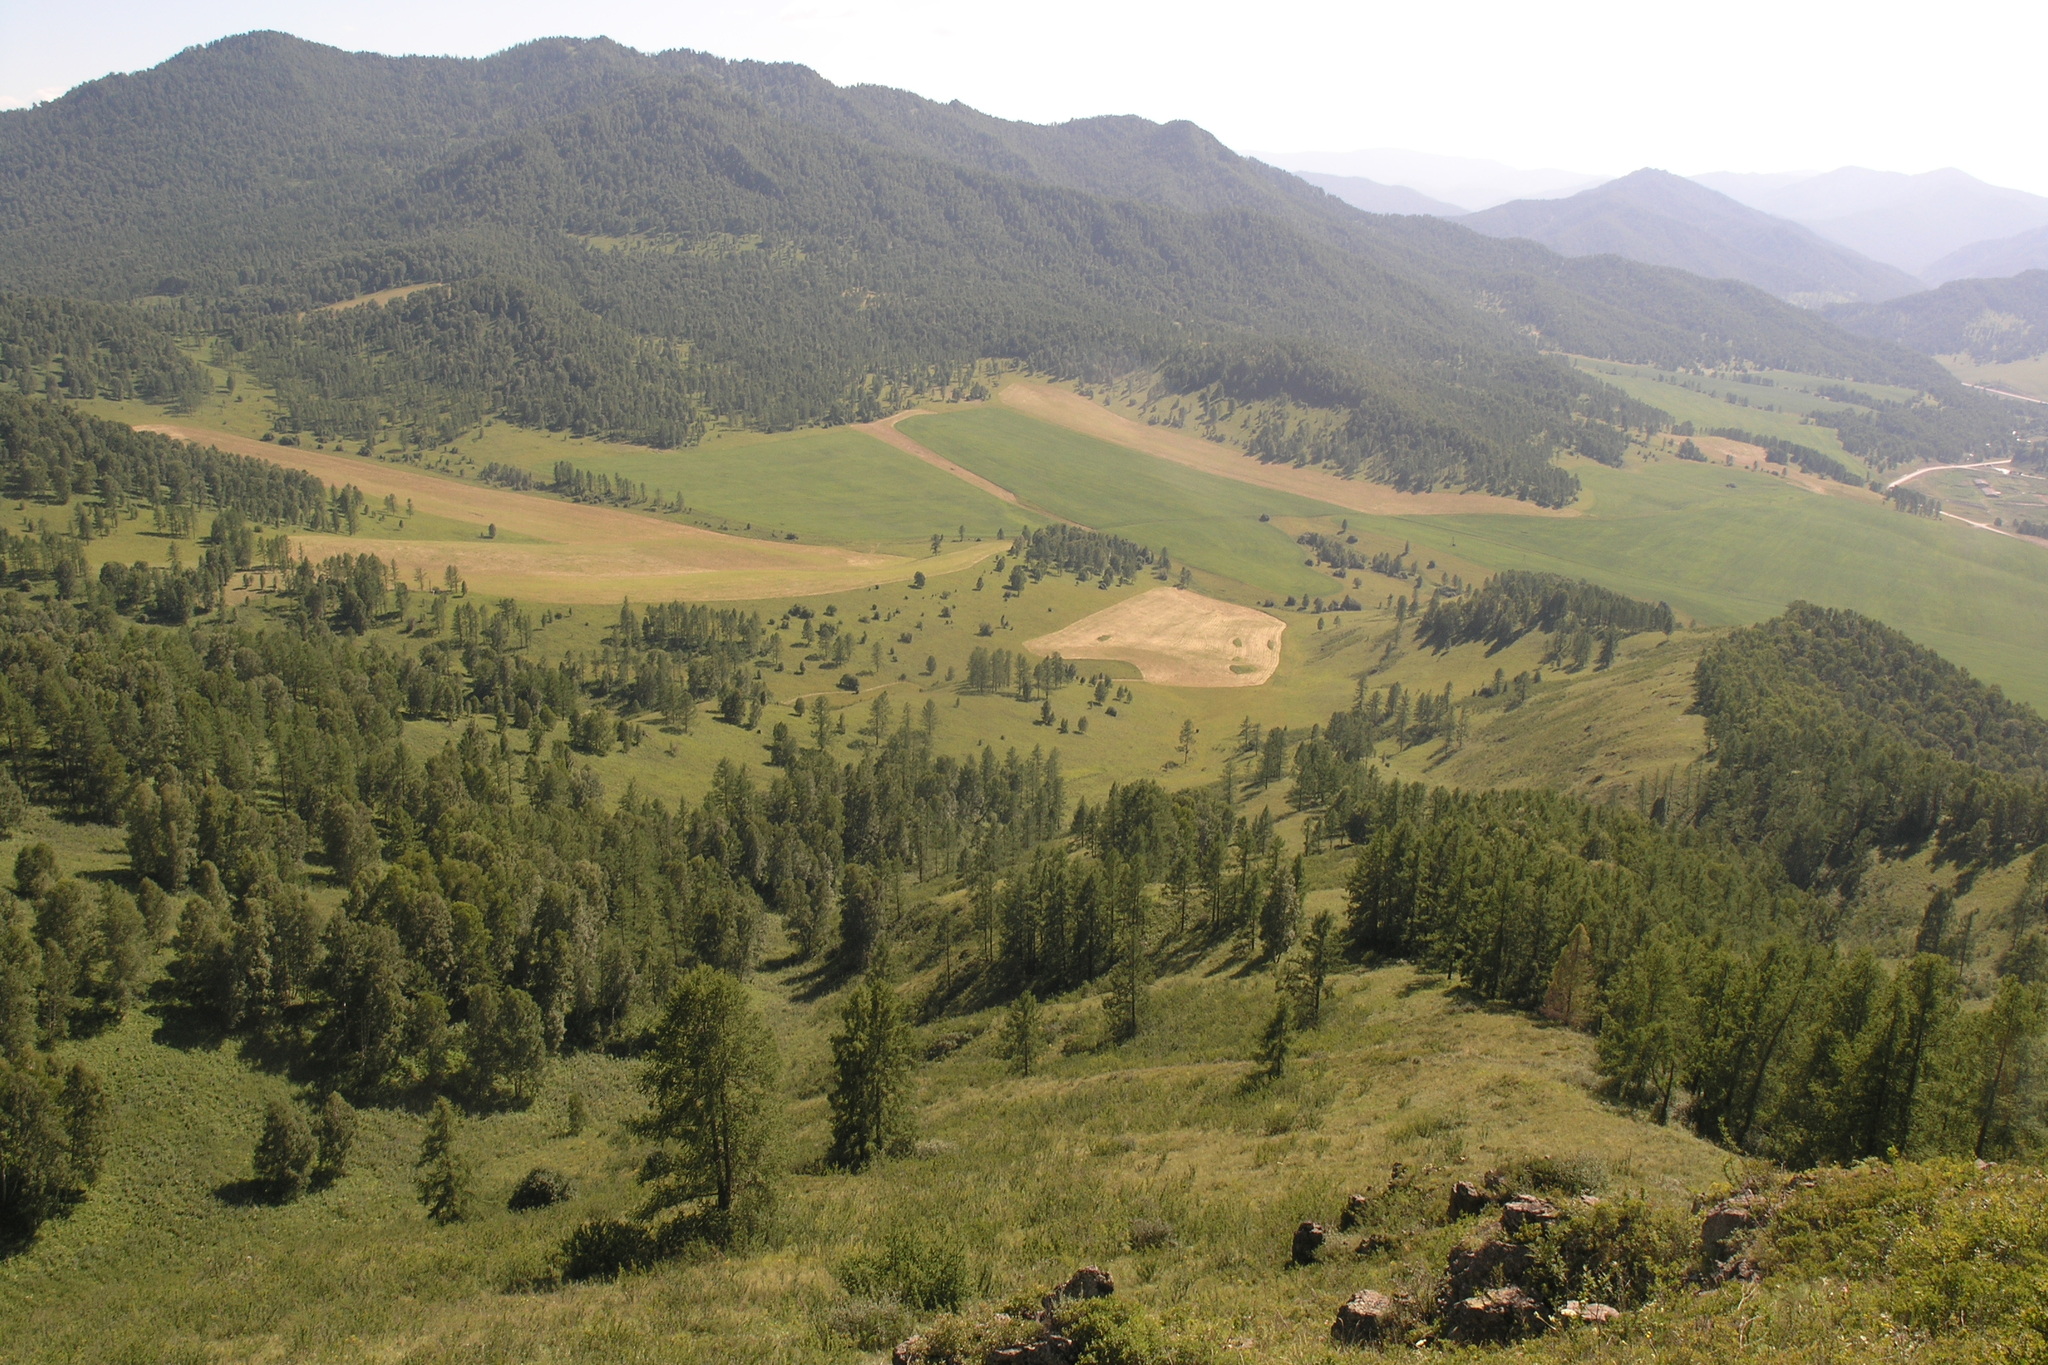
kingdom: Plantae
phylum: Tracheophyta
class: Pinopsida
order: Pinales
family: Pinaceae
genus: Larix
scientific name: Larix sibirica
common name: Siberian larch
